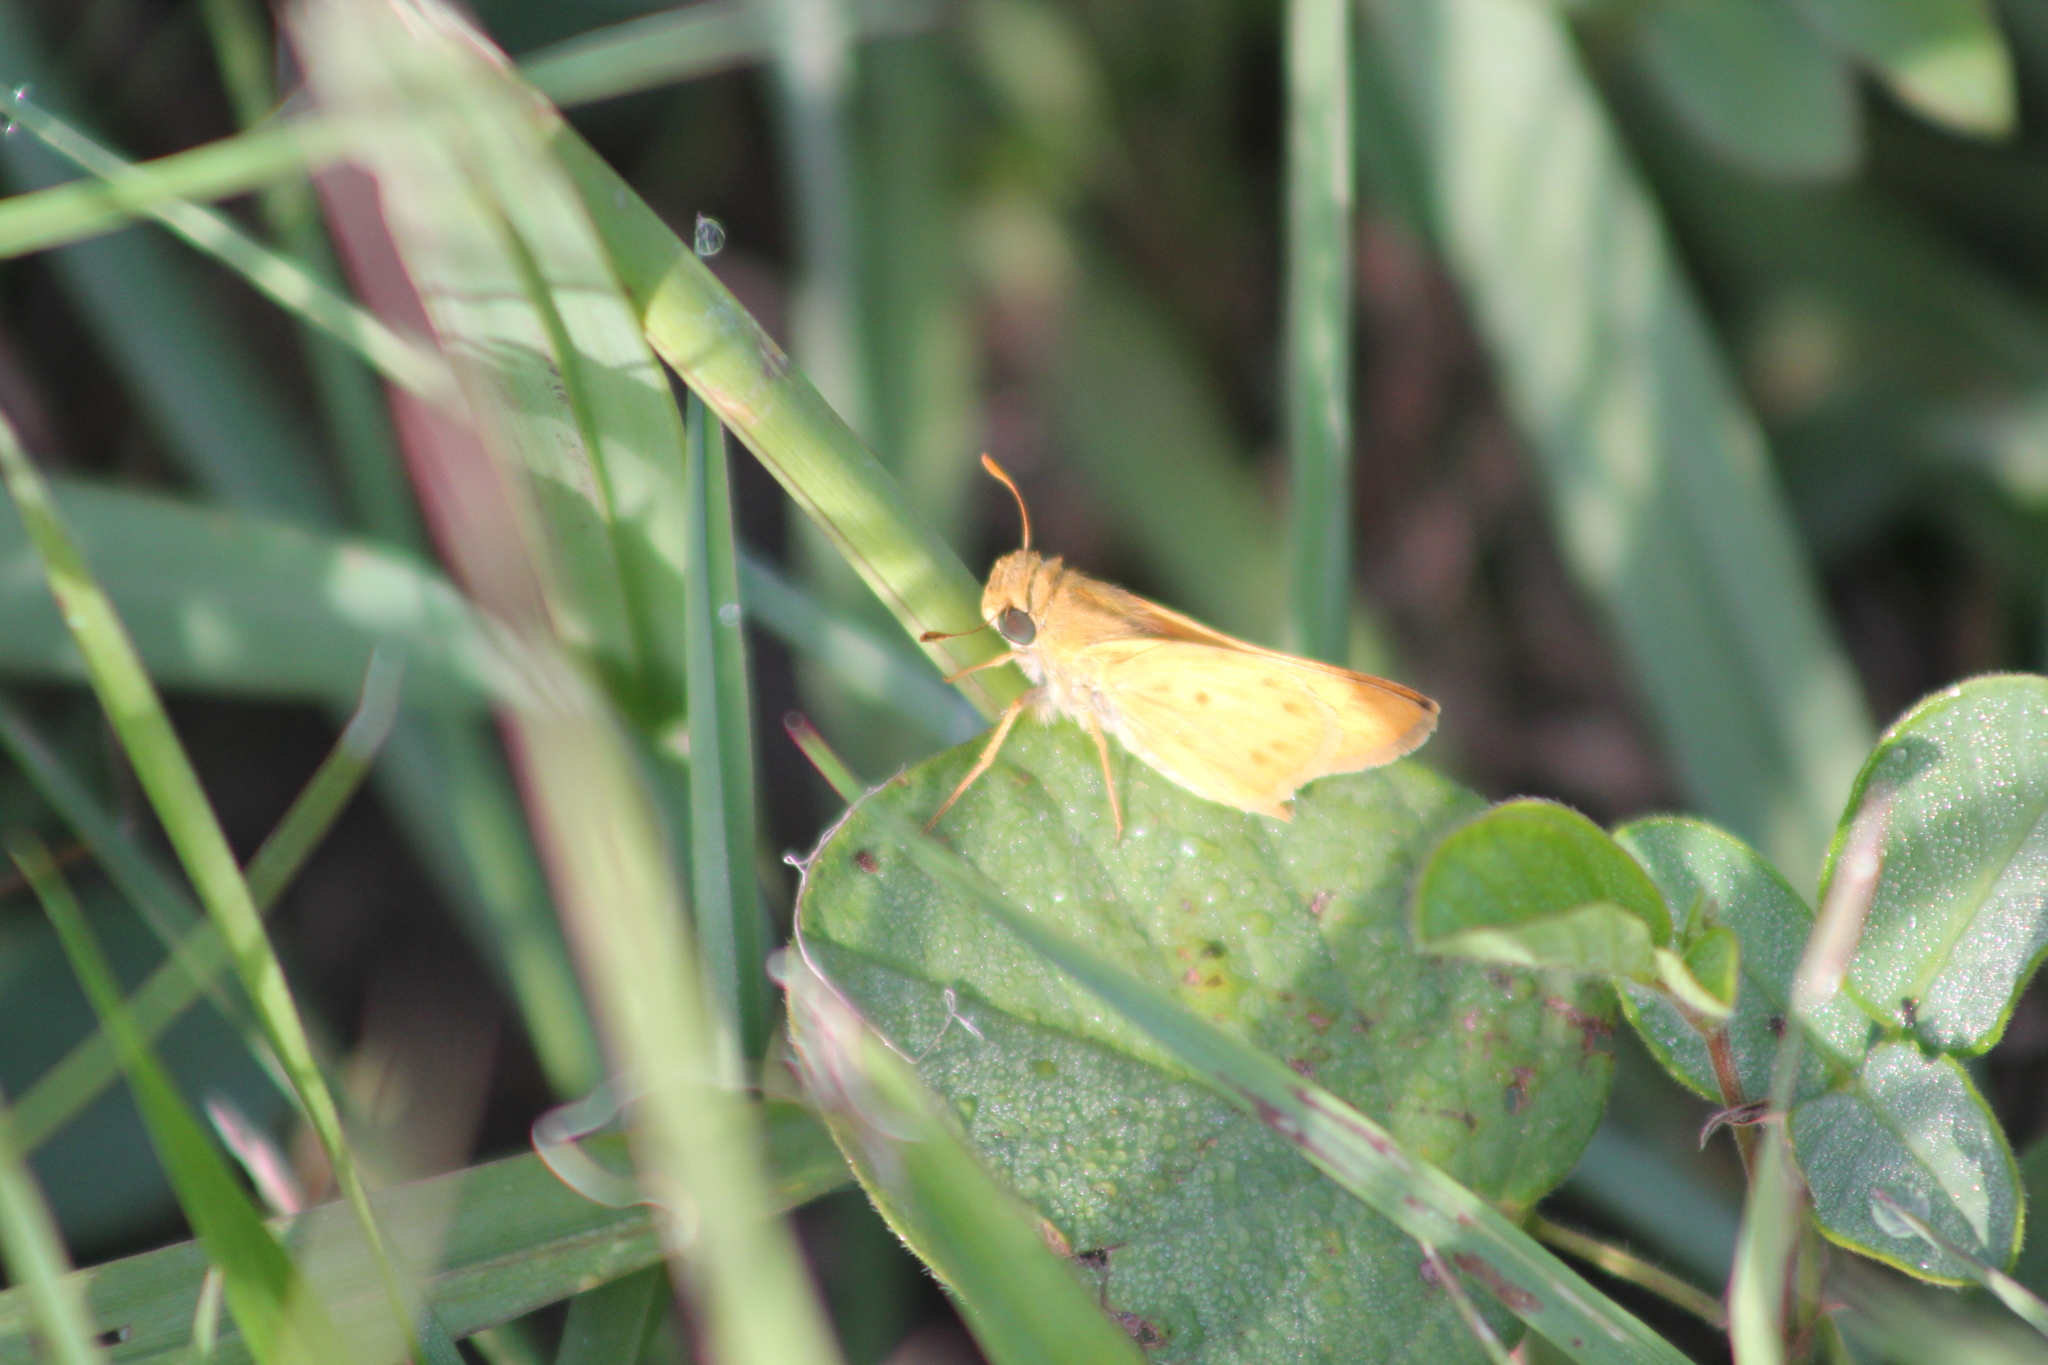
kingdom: Animalia
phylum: Arthropoda
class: Insecta
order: Lepidoptera
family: Hesperiidae
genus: Hylephila
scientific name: Hylephila phyleus
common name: Fiery skipper
